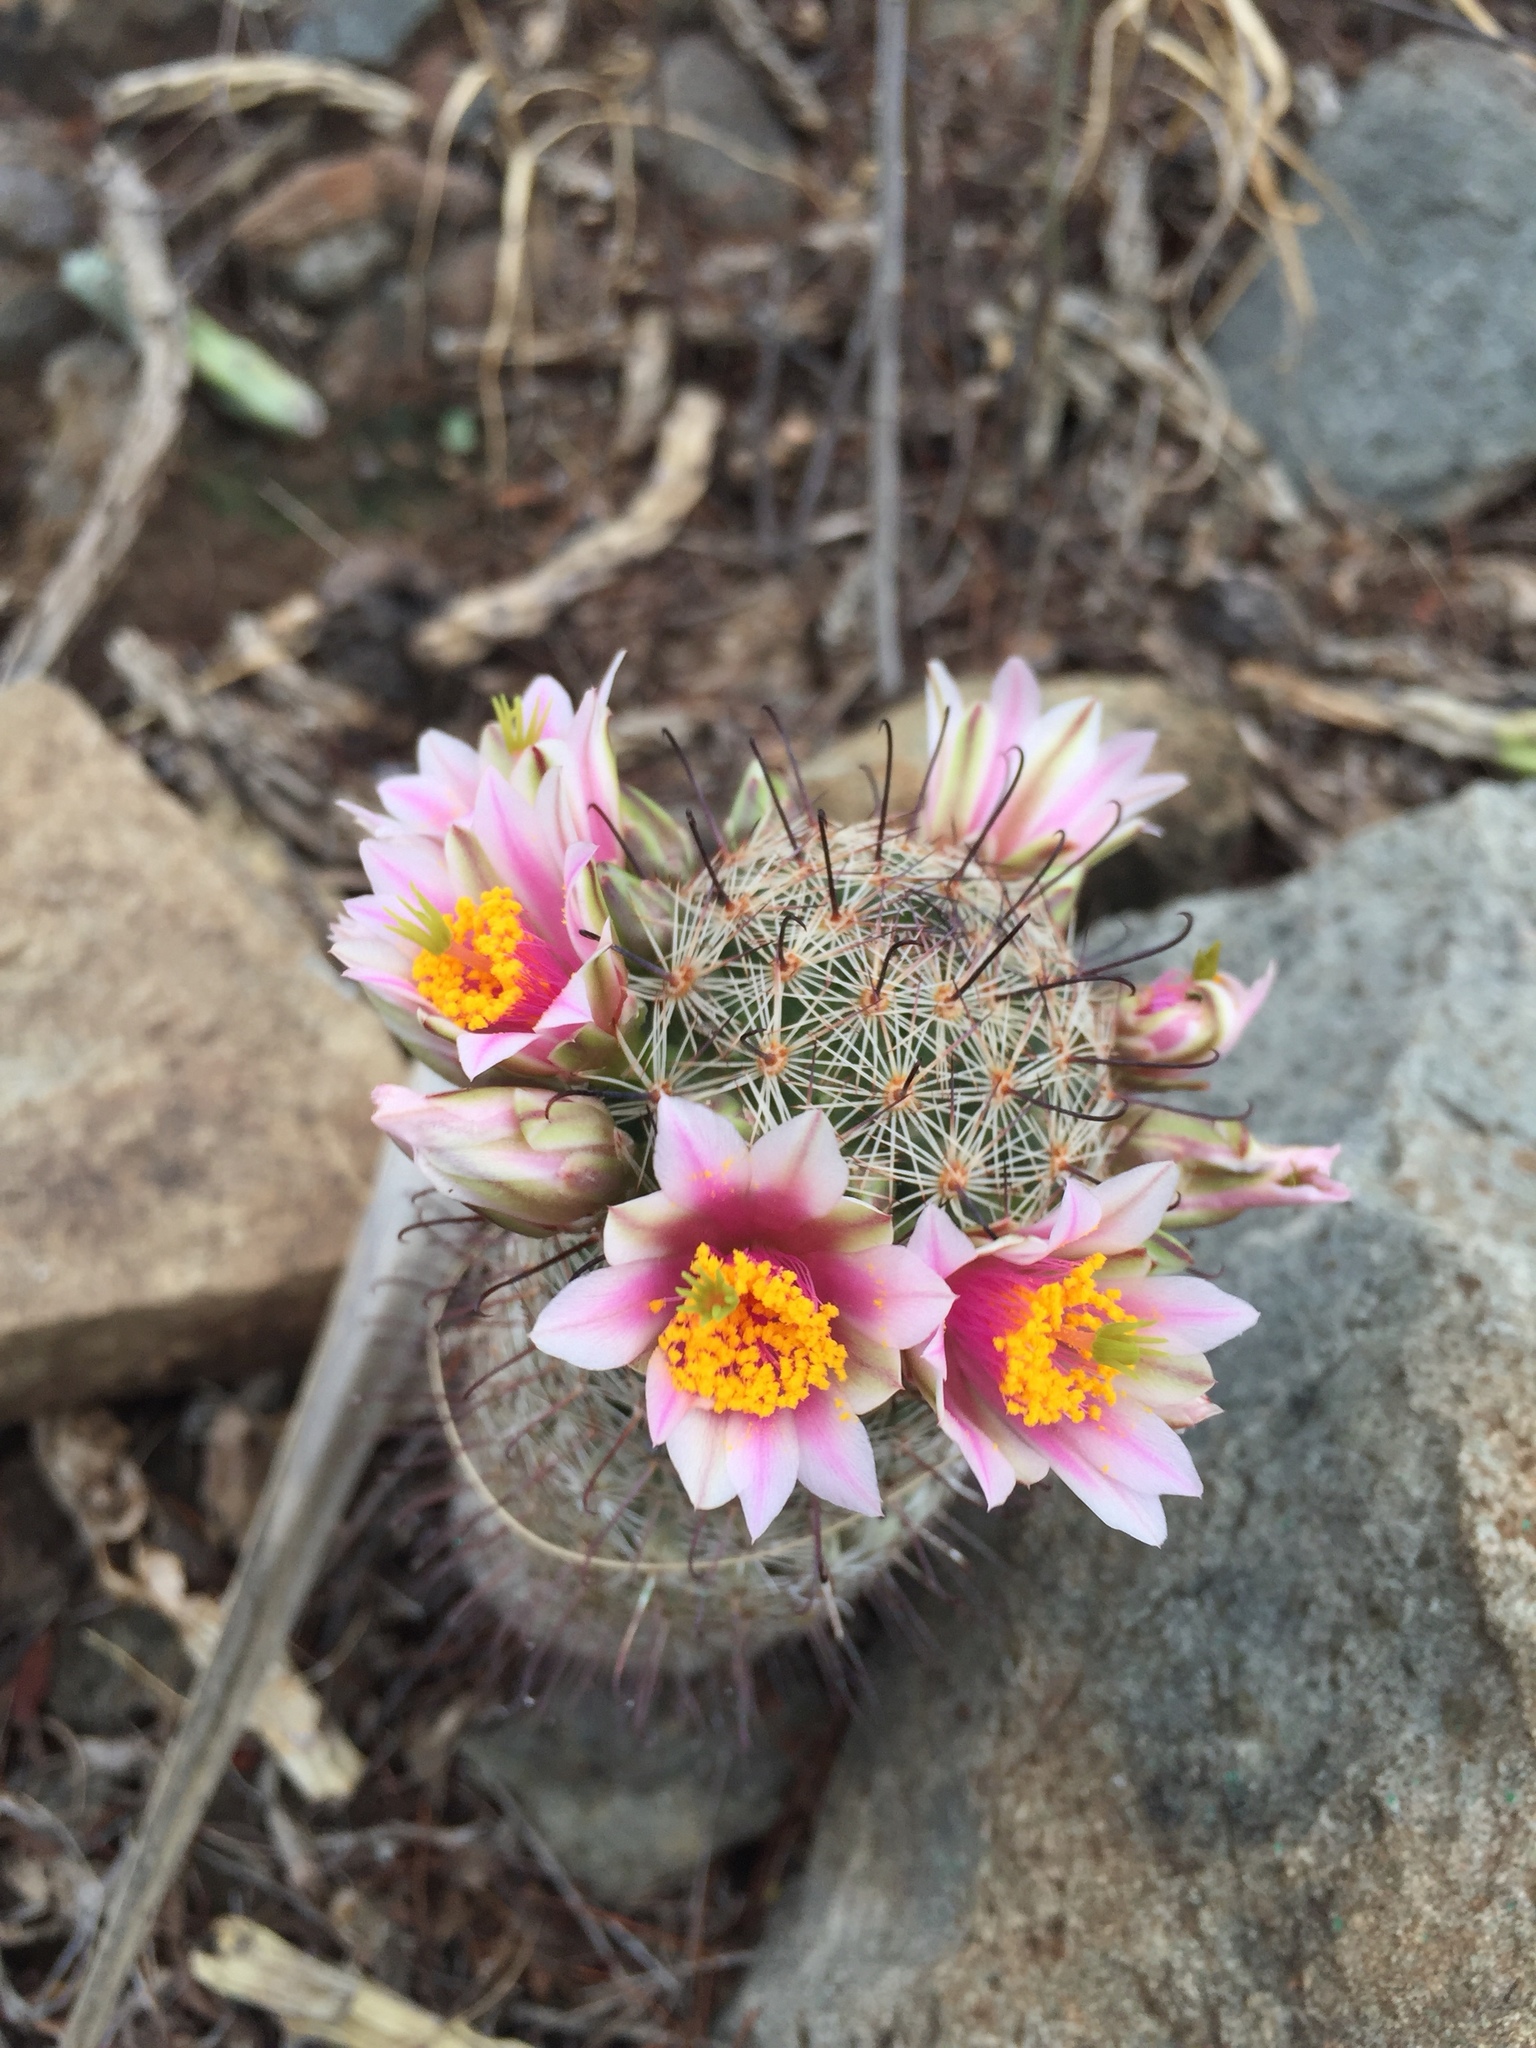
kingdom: Plantae
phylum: Tracheophyta
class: Magnoliopsida
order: Caryophyllales
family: Cactaceae
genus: Cochemiea
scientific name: Cochemiea grahamii
